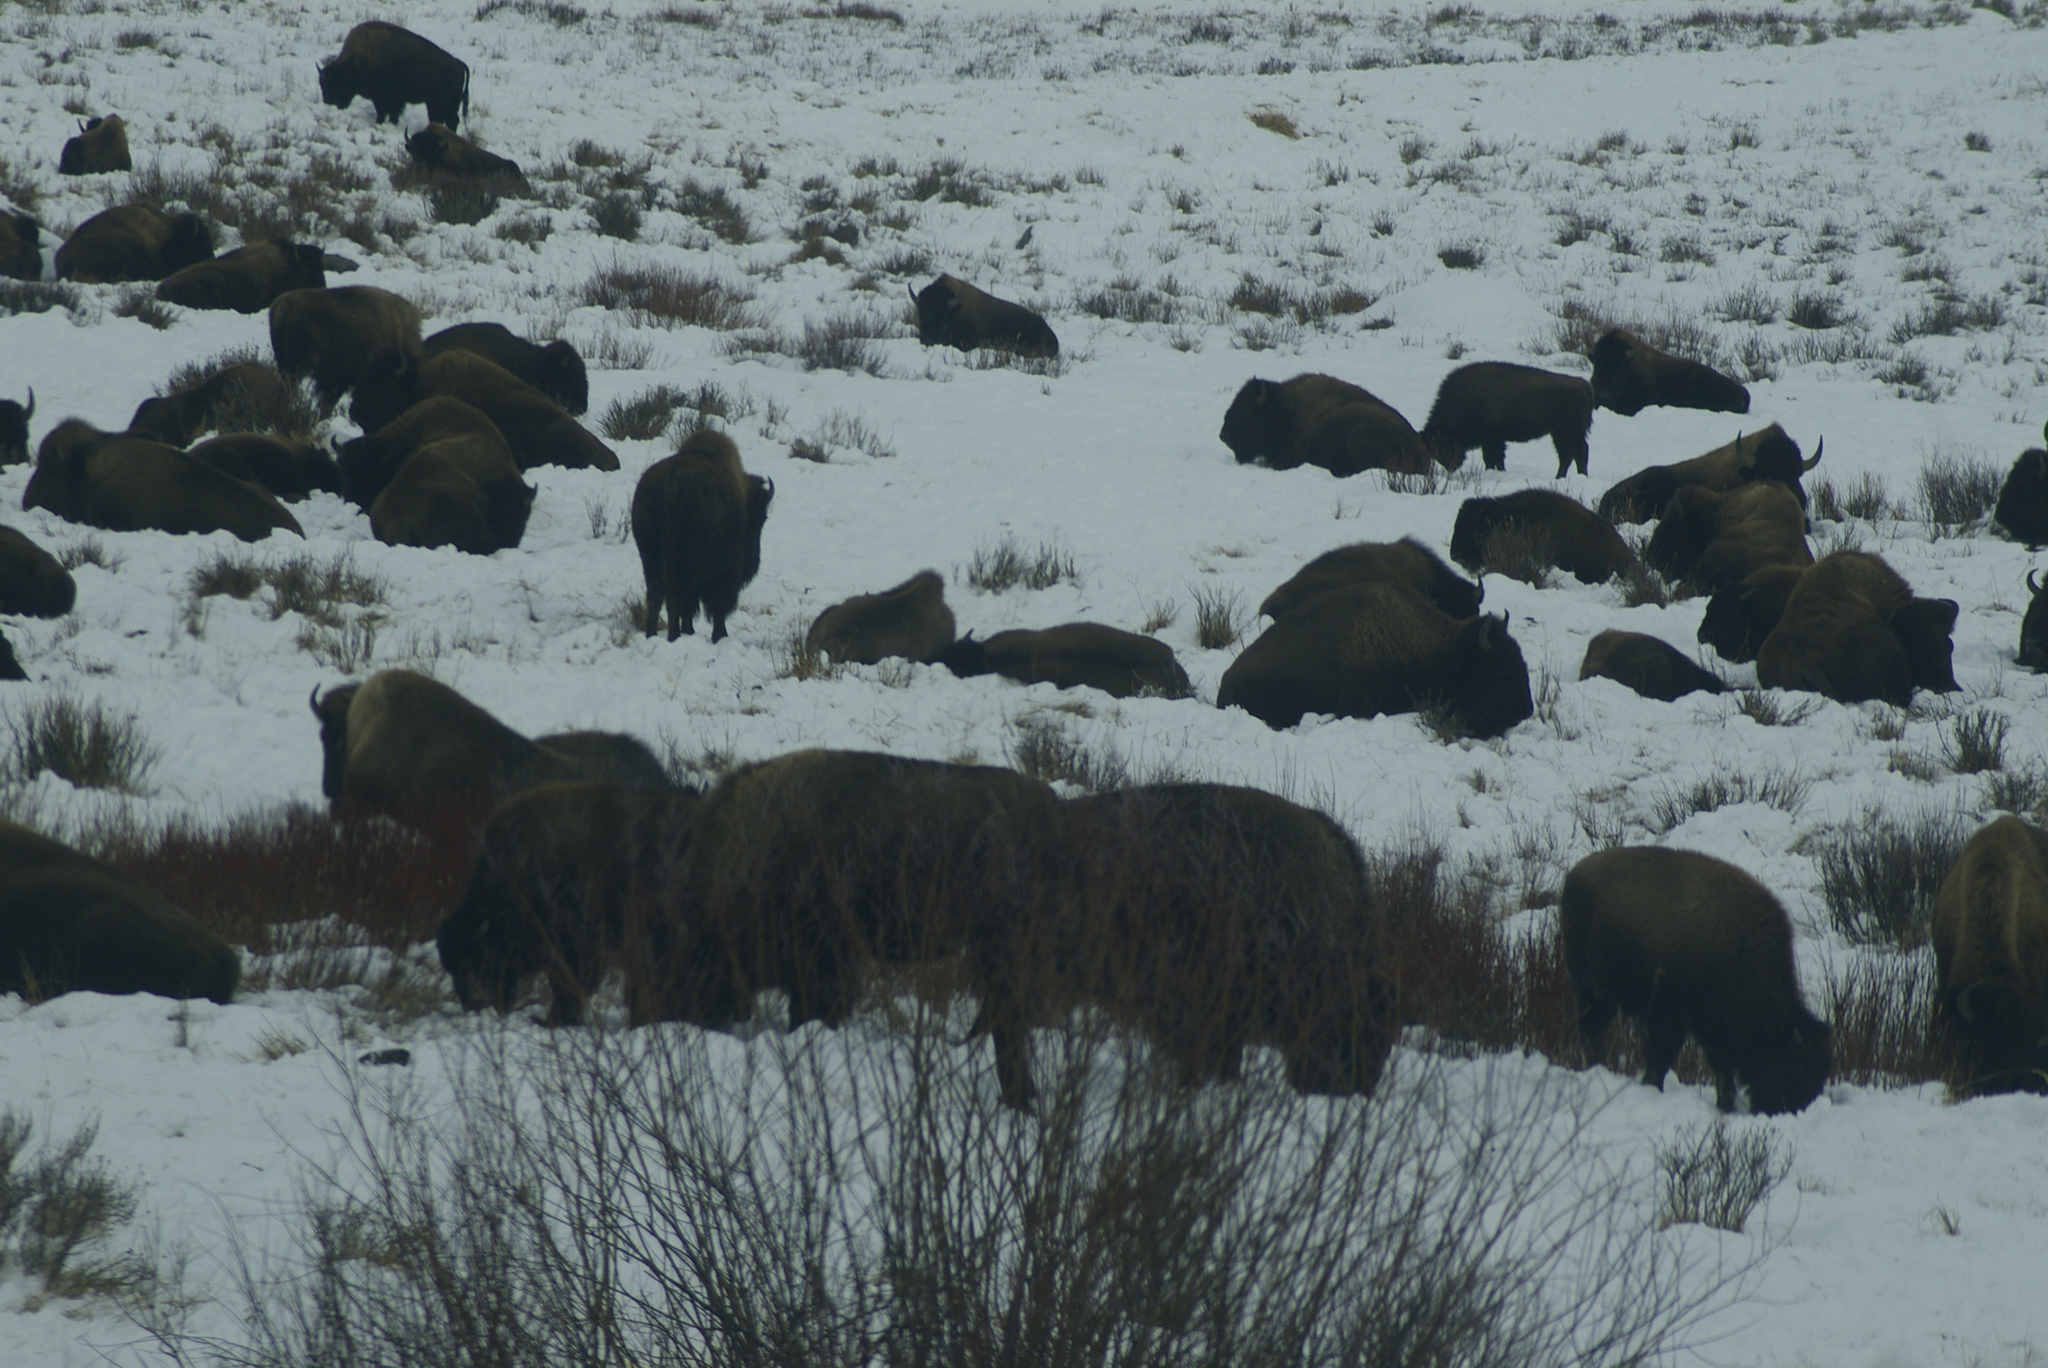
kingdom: Animalia
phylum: Chordata
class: Mammalia
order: Artiodactyla
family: Bovidae
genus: Bison
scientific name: Bison bison
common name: American bison
